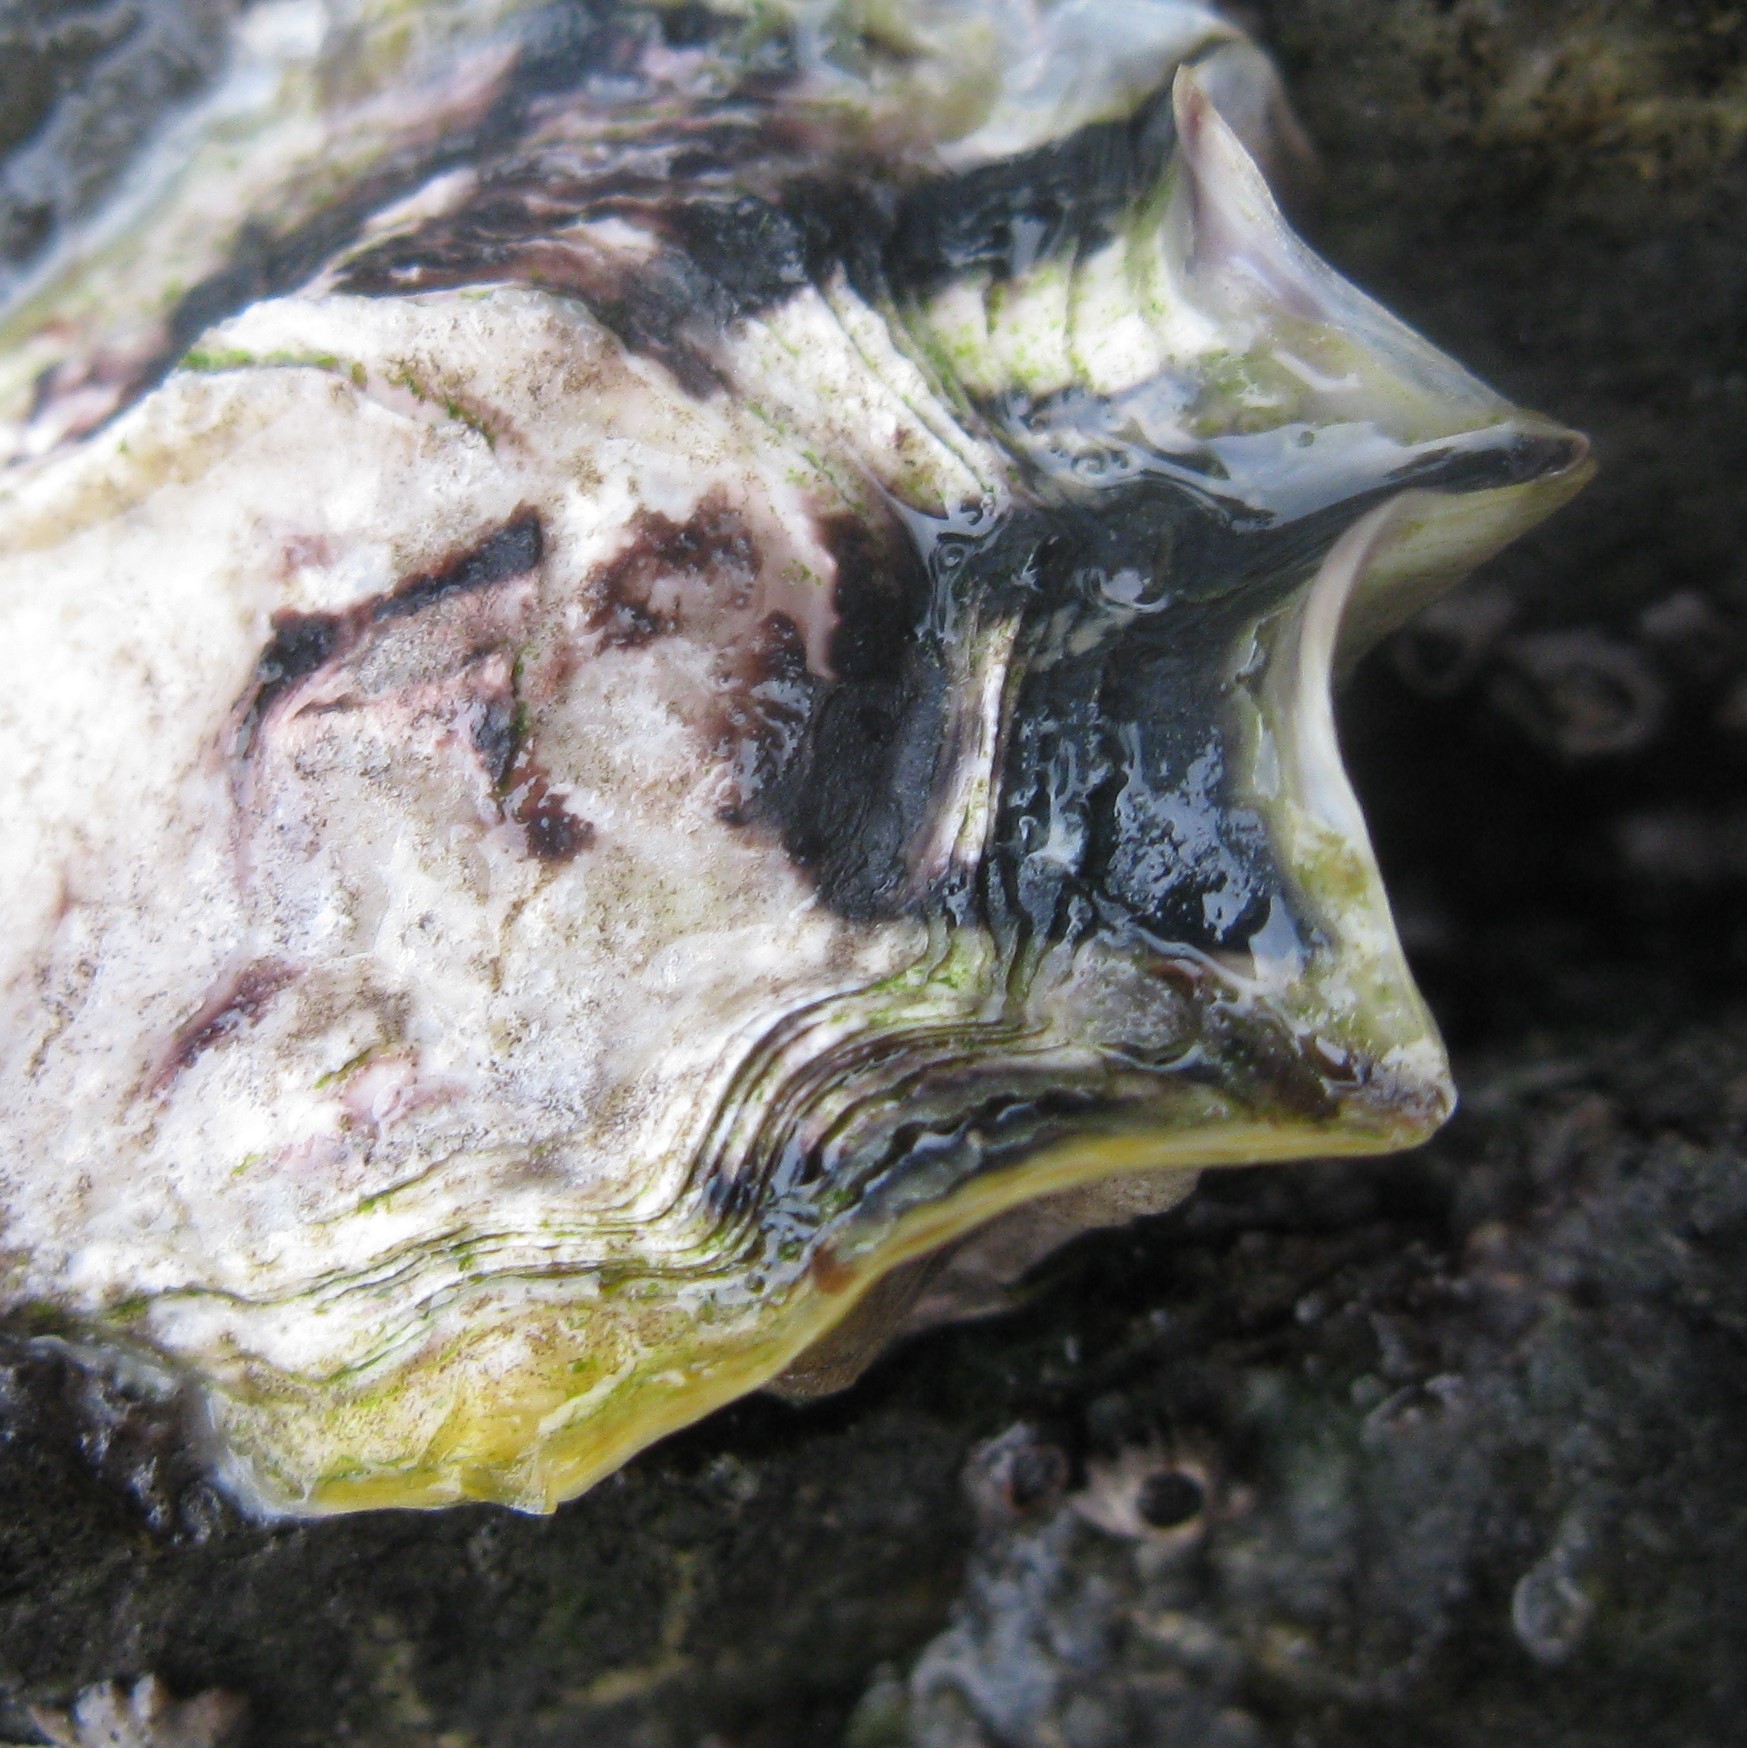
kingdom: Animalia
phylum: Mollusca
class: Bivalvia
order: Ostreida
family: Ostreidae
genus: Magallana
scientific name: Magallana gigas
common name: Pacific oyster
